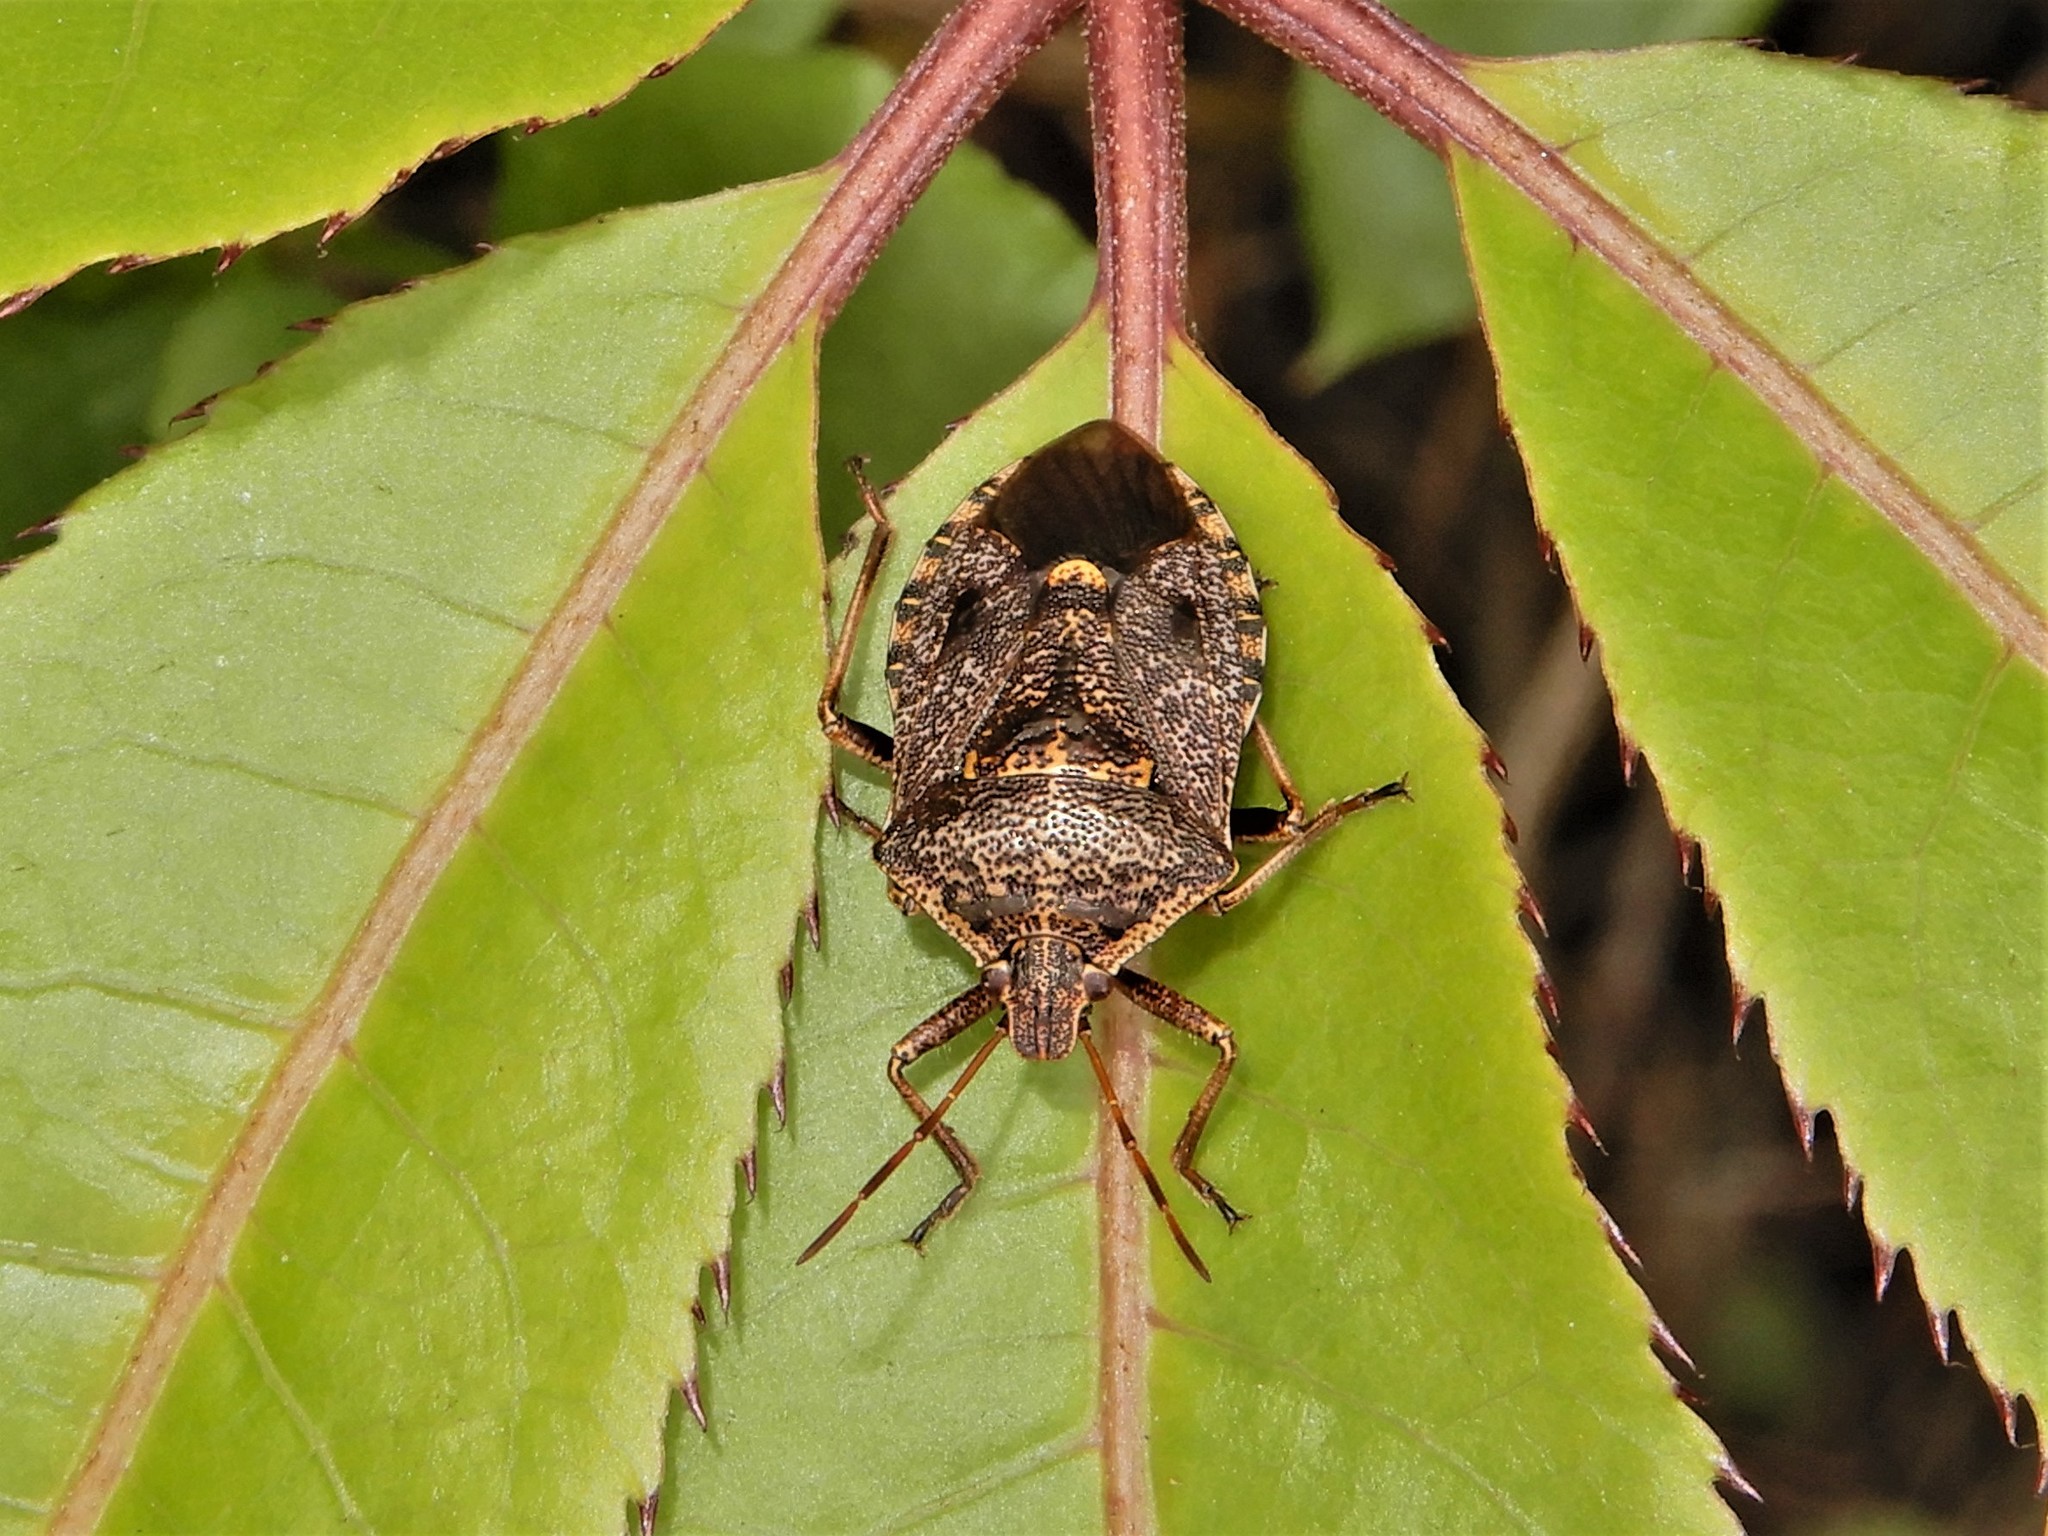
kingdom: Animalia
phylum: Arthropoda
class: Insecta
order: Hemiptera
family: Pentatomidae
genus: Cermatulus
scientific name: Cermatulus nasalis
